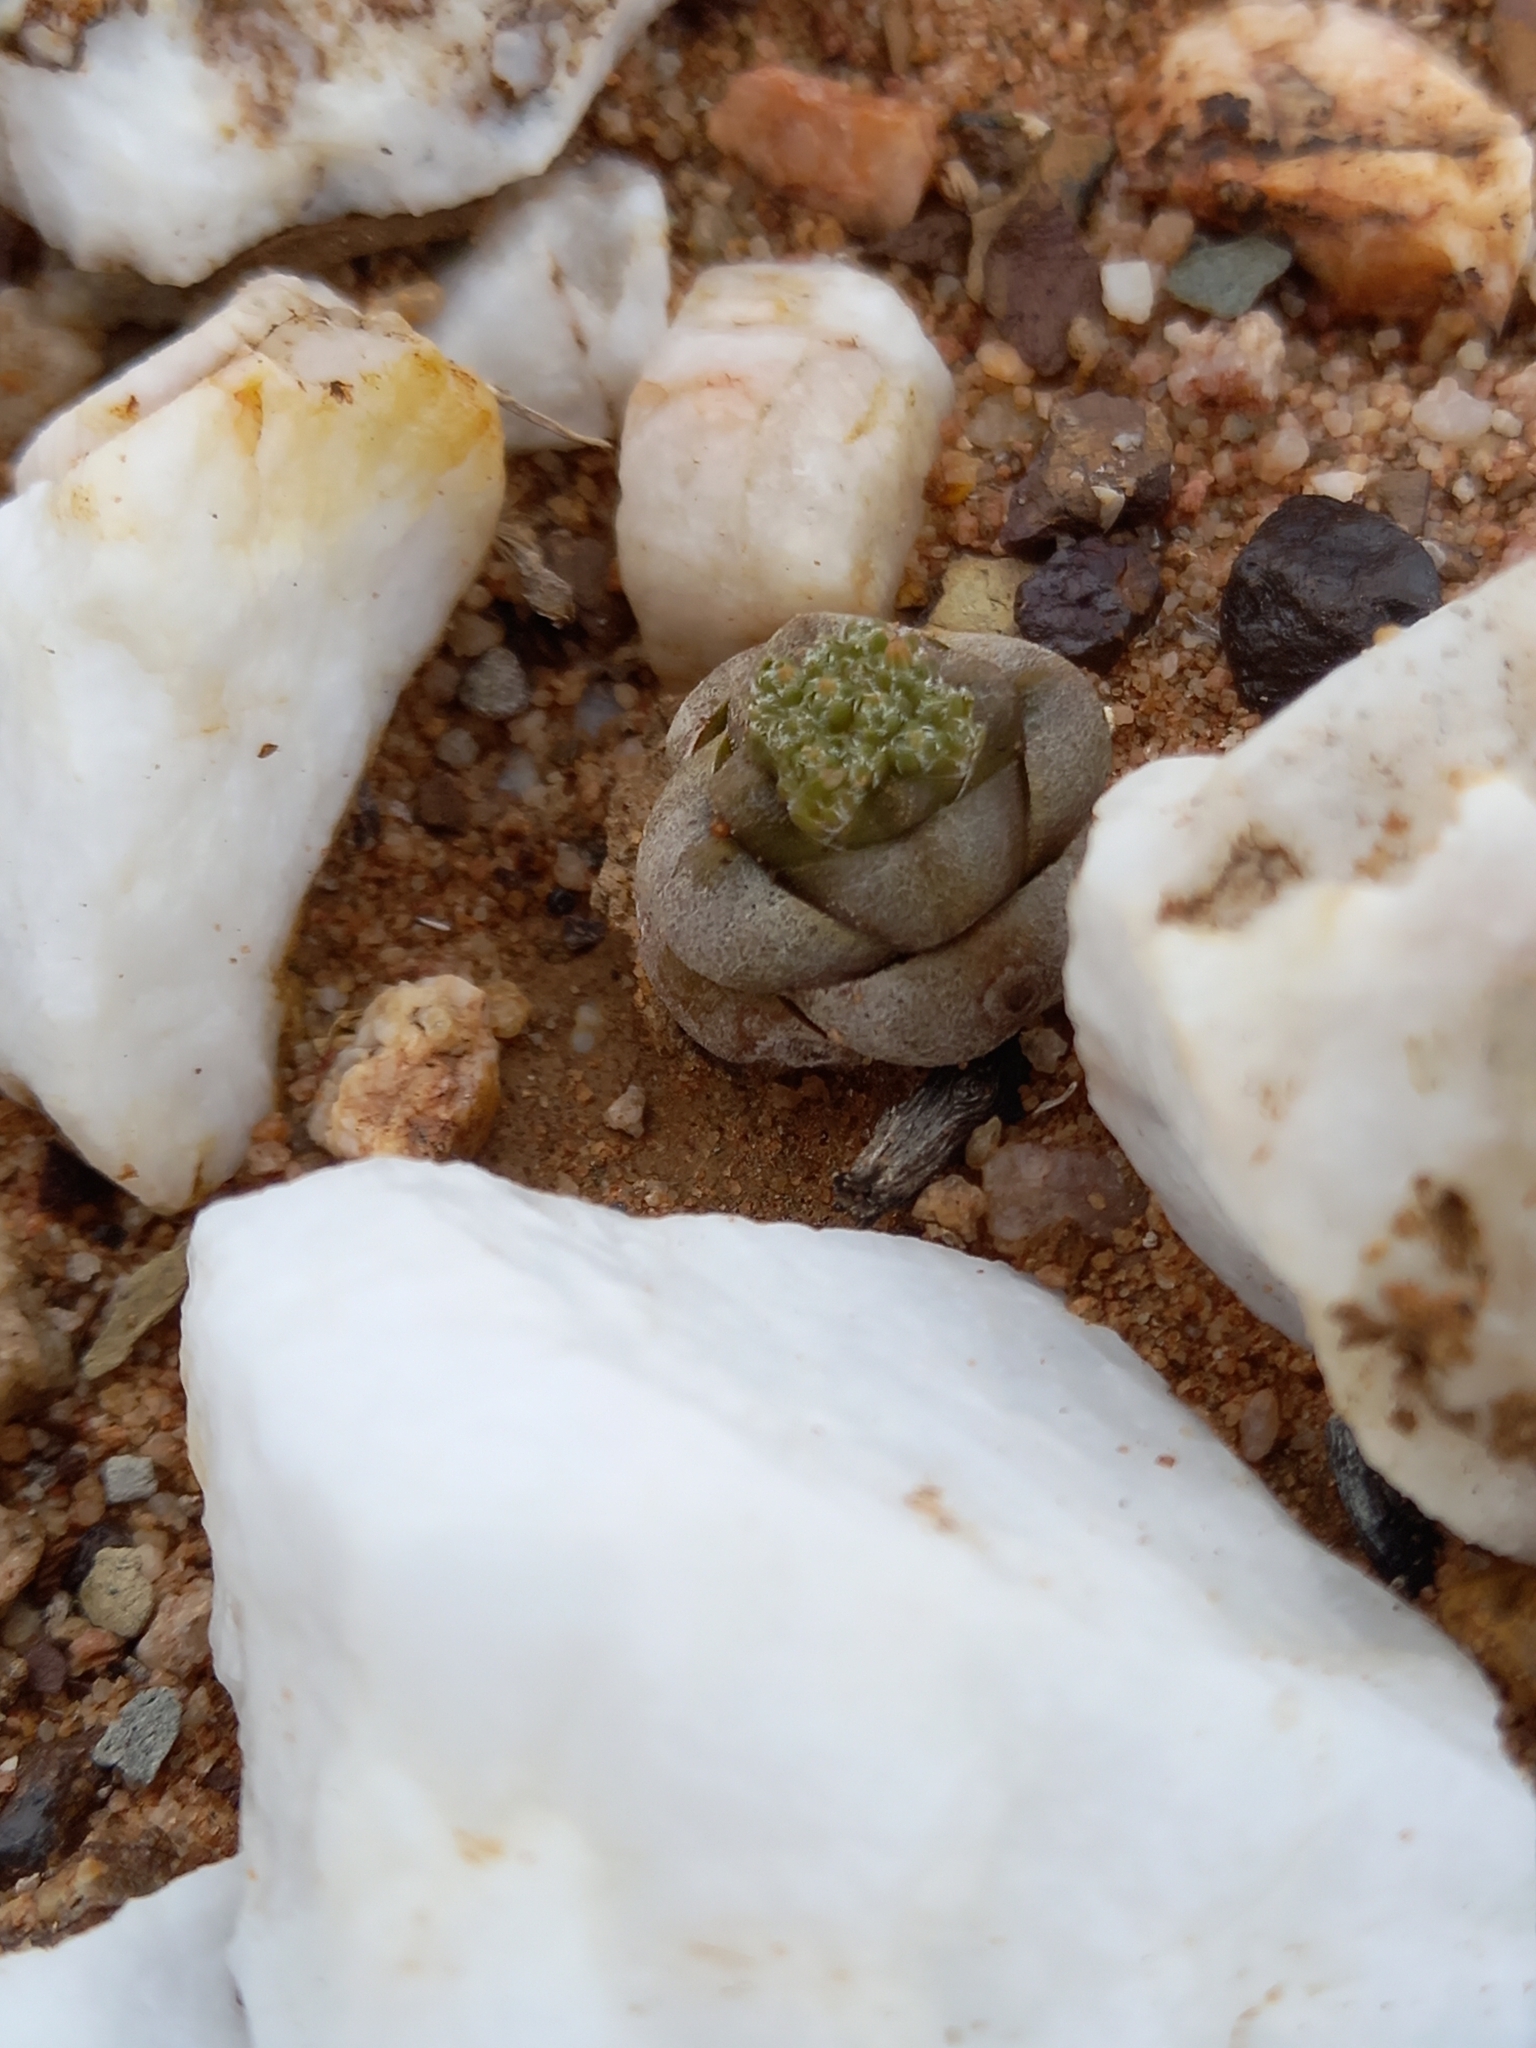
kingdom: Plantae
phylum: Tracheophyta
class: Magnoliopsida
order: Saxifragales
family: Crassulaceae
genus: Crassula
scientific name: Crassula columnaris
